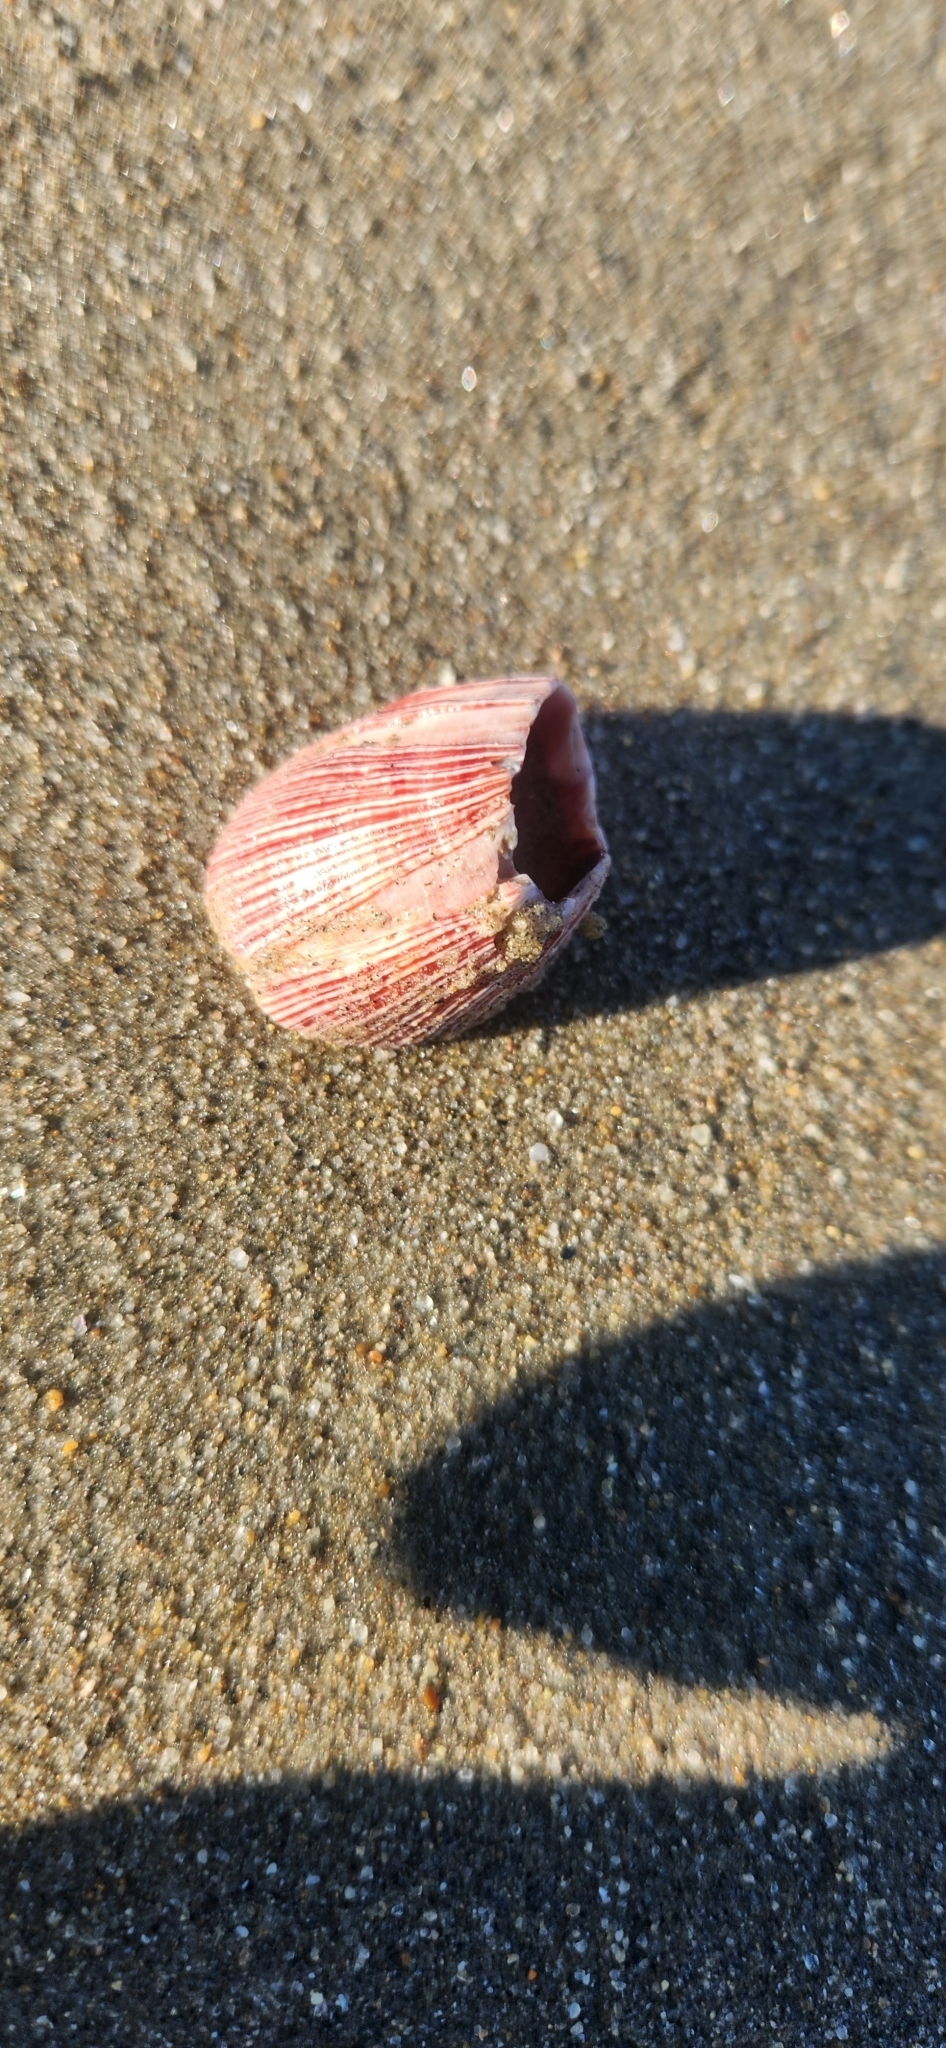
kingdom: Animalia
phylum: Arthropoda
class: Maxillopoda
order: Sessilia
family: Balanidae
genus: Megabalanus
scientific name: Megabalanus californicus
